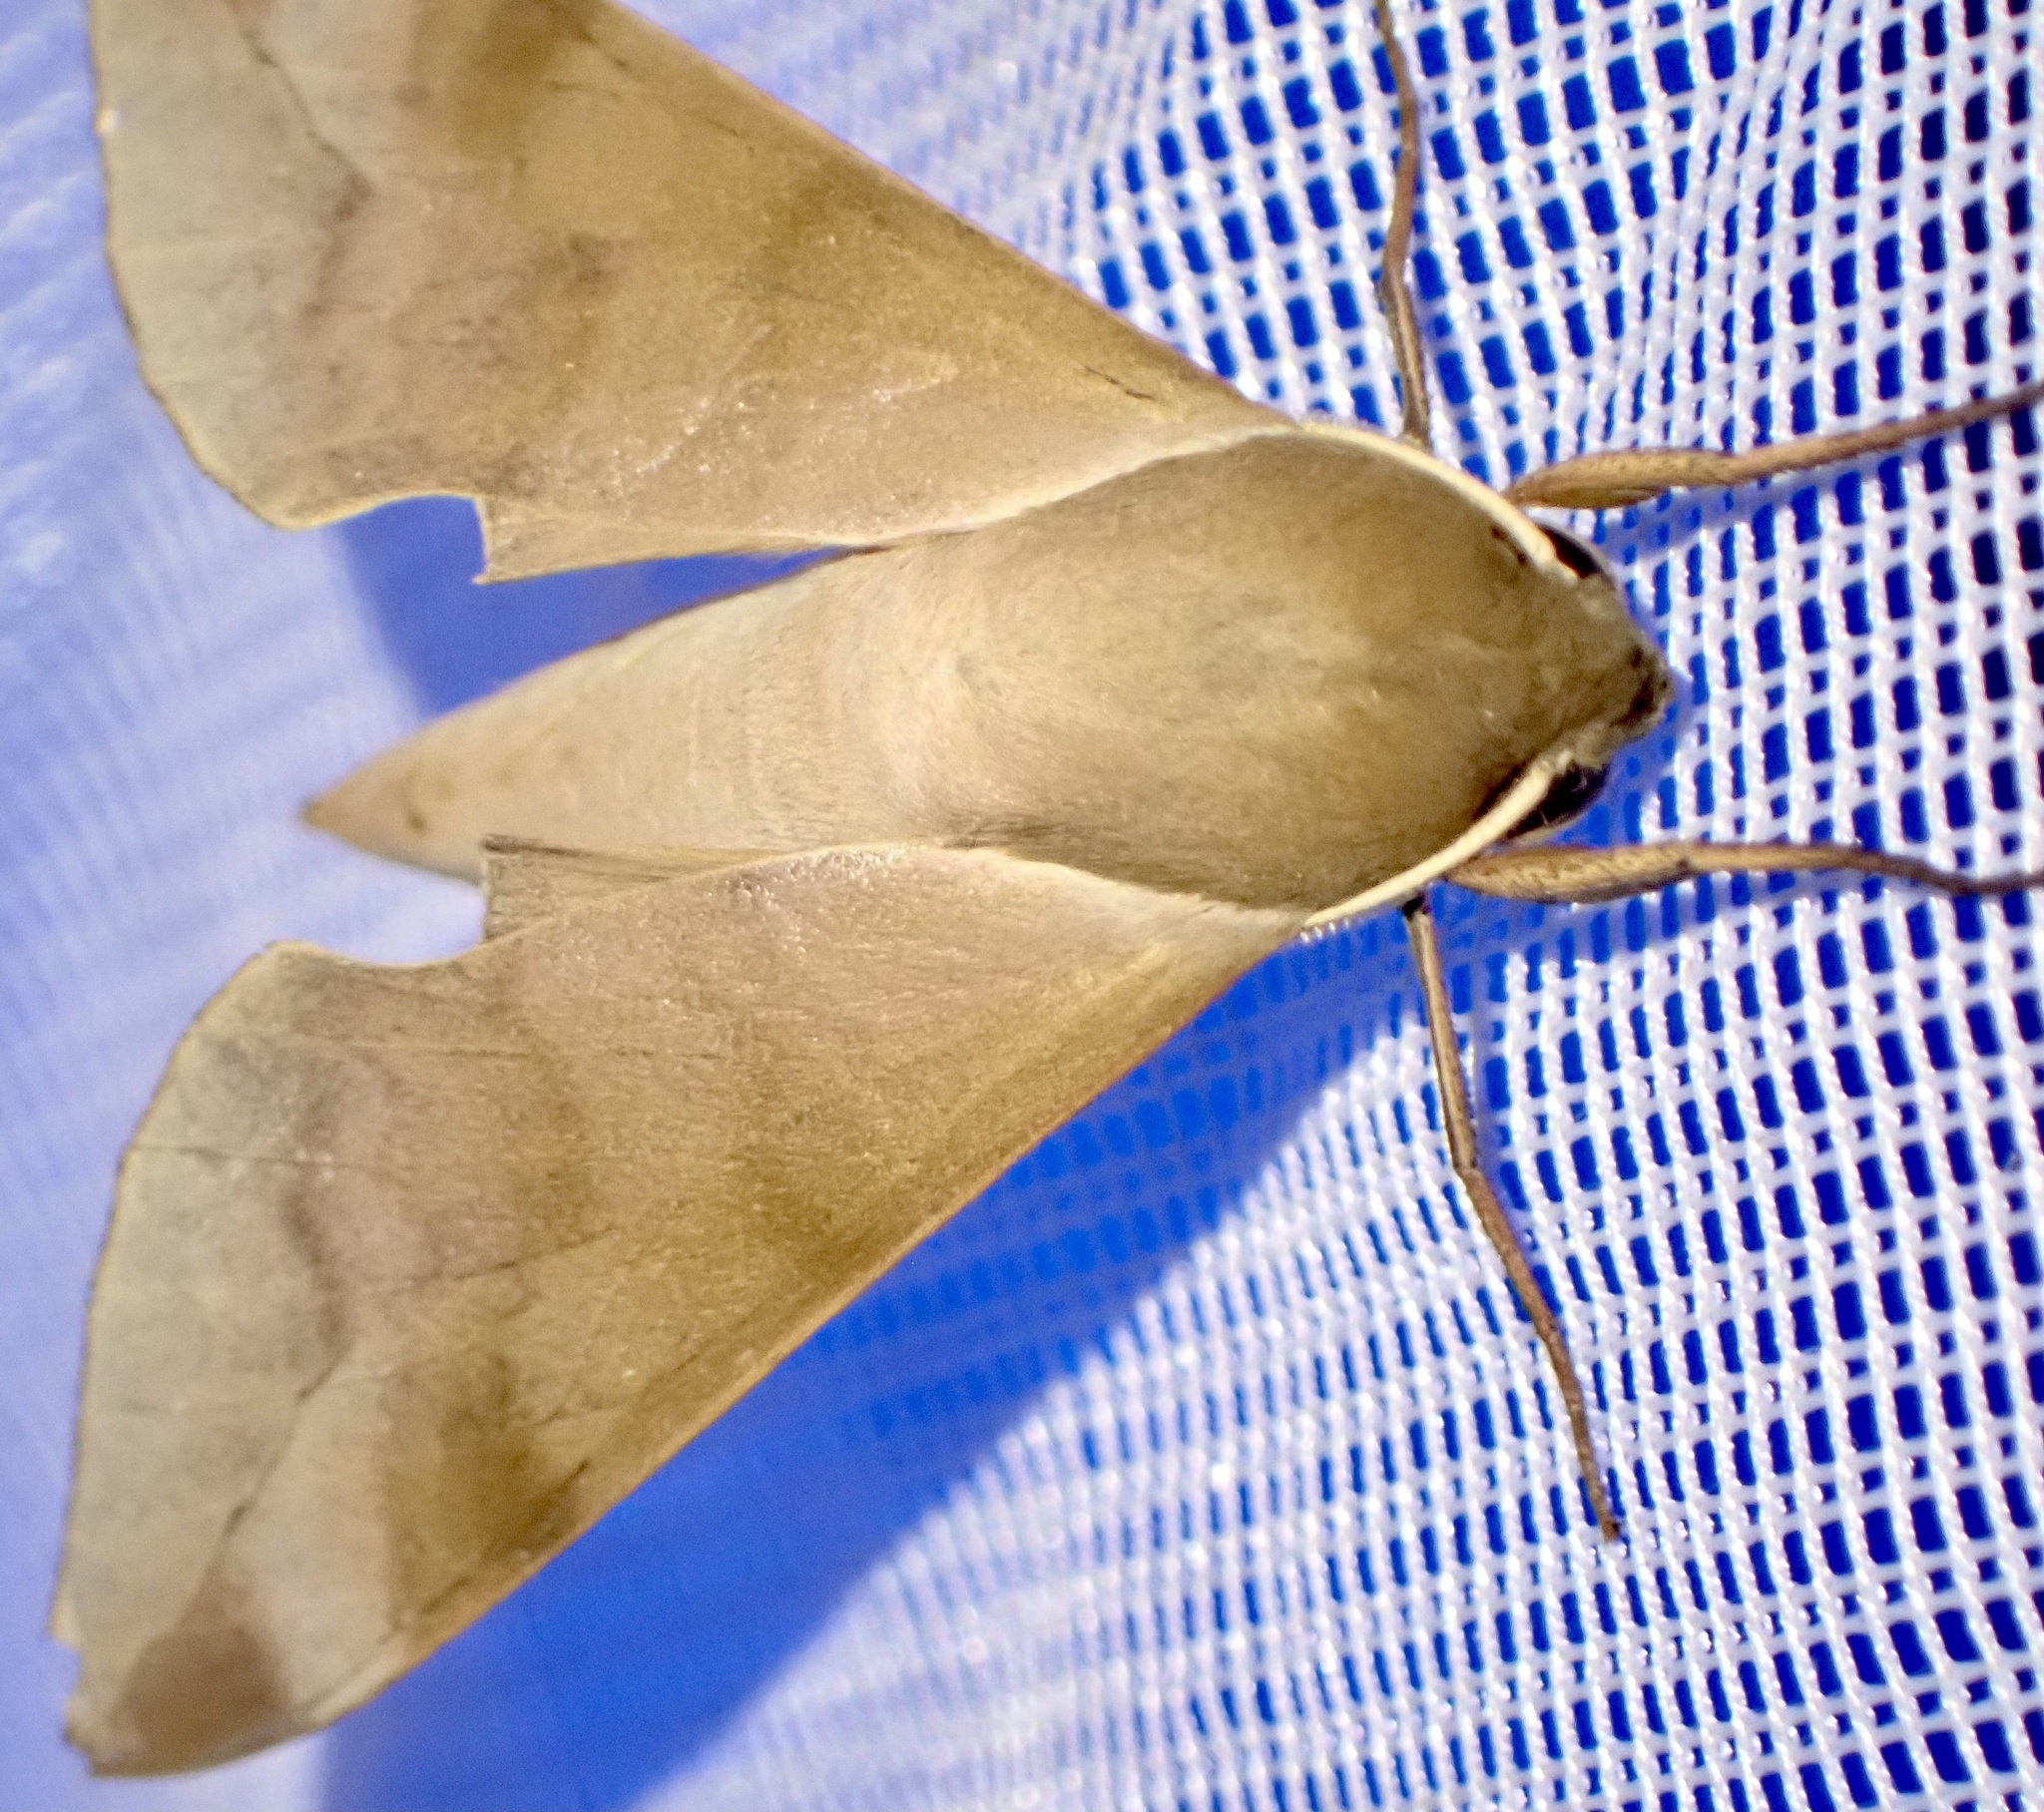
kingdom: Animalia
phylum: Arthropoda
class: Insecta
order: Lepidoptera
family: Sphingidae
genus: Phylloxiphia
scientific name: Phylloxiphia bicolor
